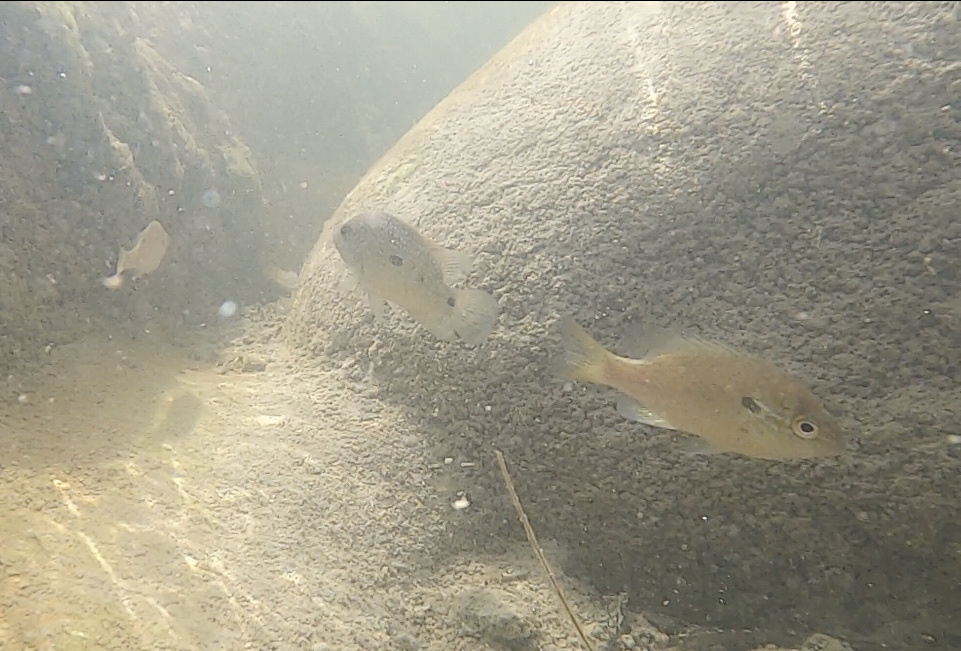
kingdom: Animalia
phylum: Chordata
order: Perciformes
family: Centrarchidae
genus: Lepomis
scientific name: Lepomis auritus
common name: Redbreast sunfish
